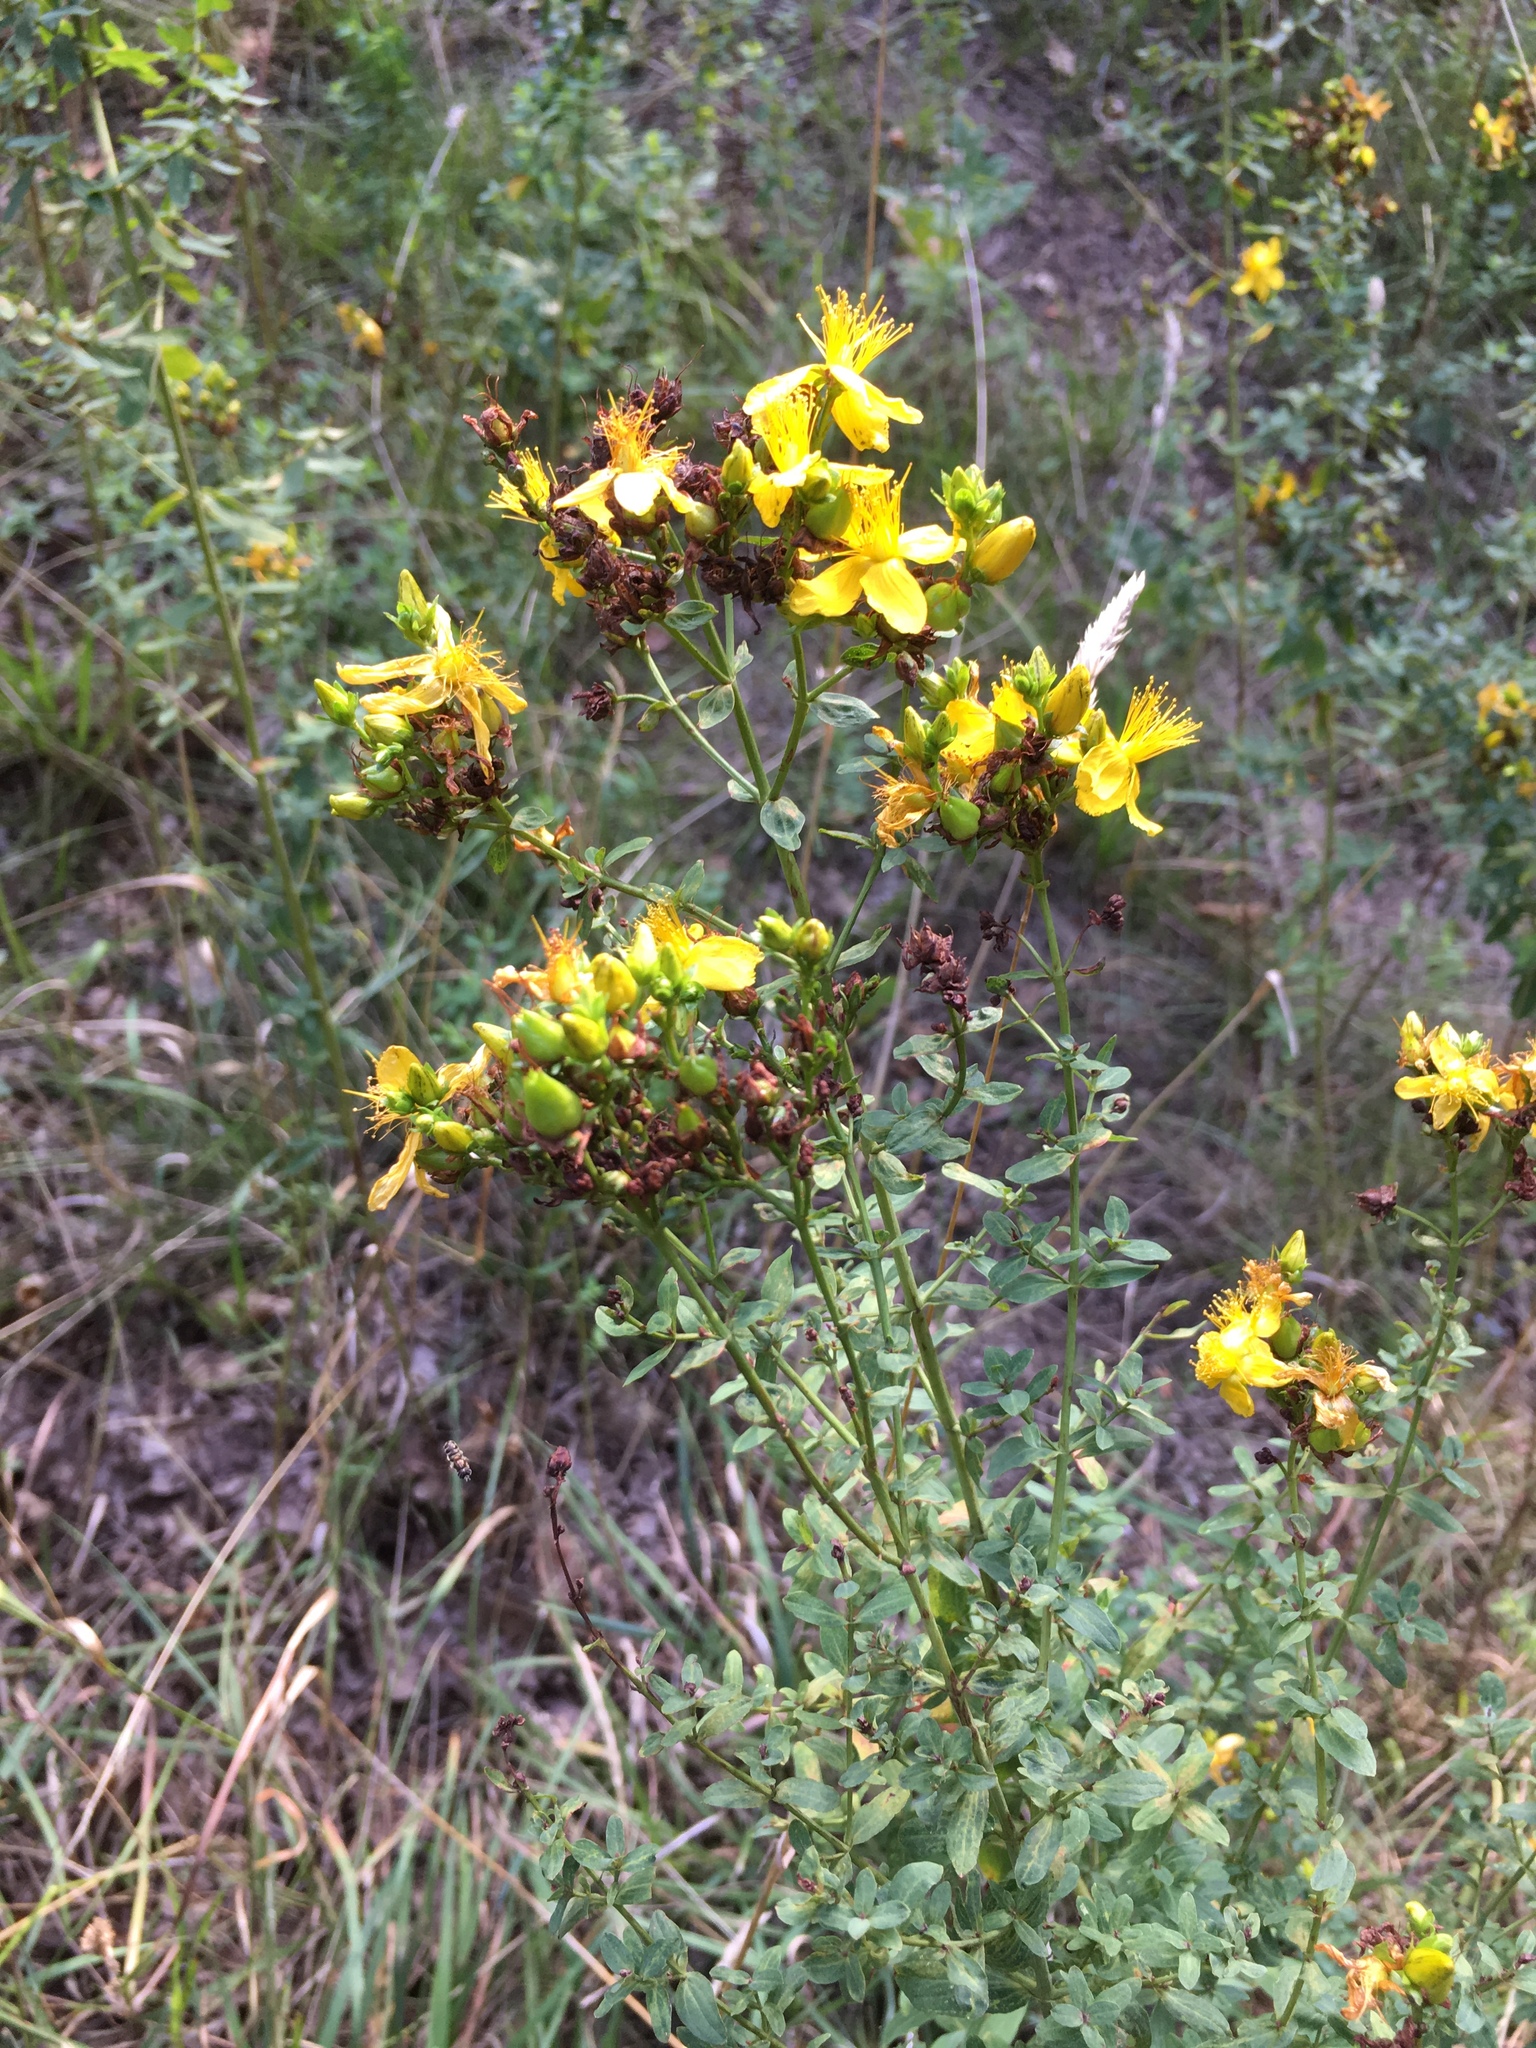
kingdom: Plantae
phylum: Tracheophyta
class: Magnoliopsida
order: Malpighiales
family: Hypericaceae
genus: Hypericum
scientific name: Hypericum perforatum
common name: Common st. johnswort
